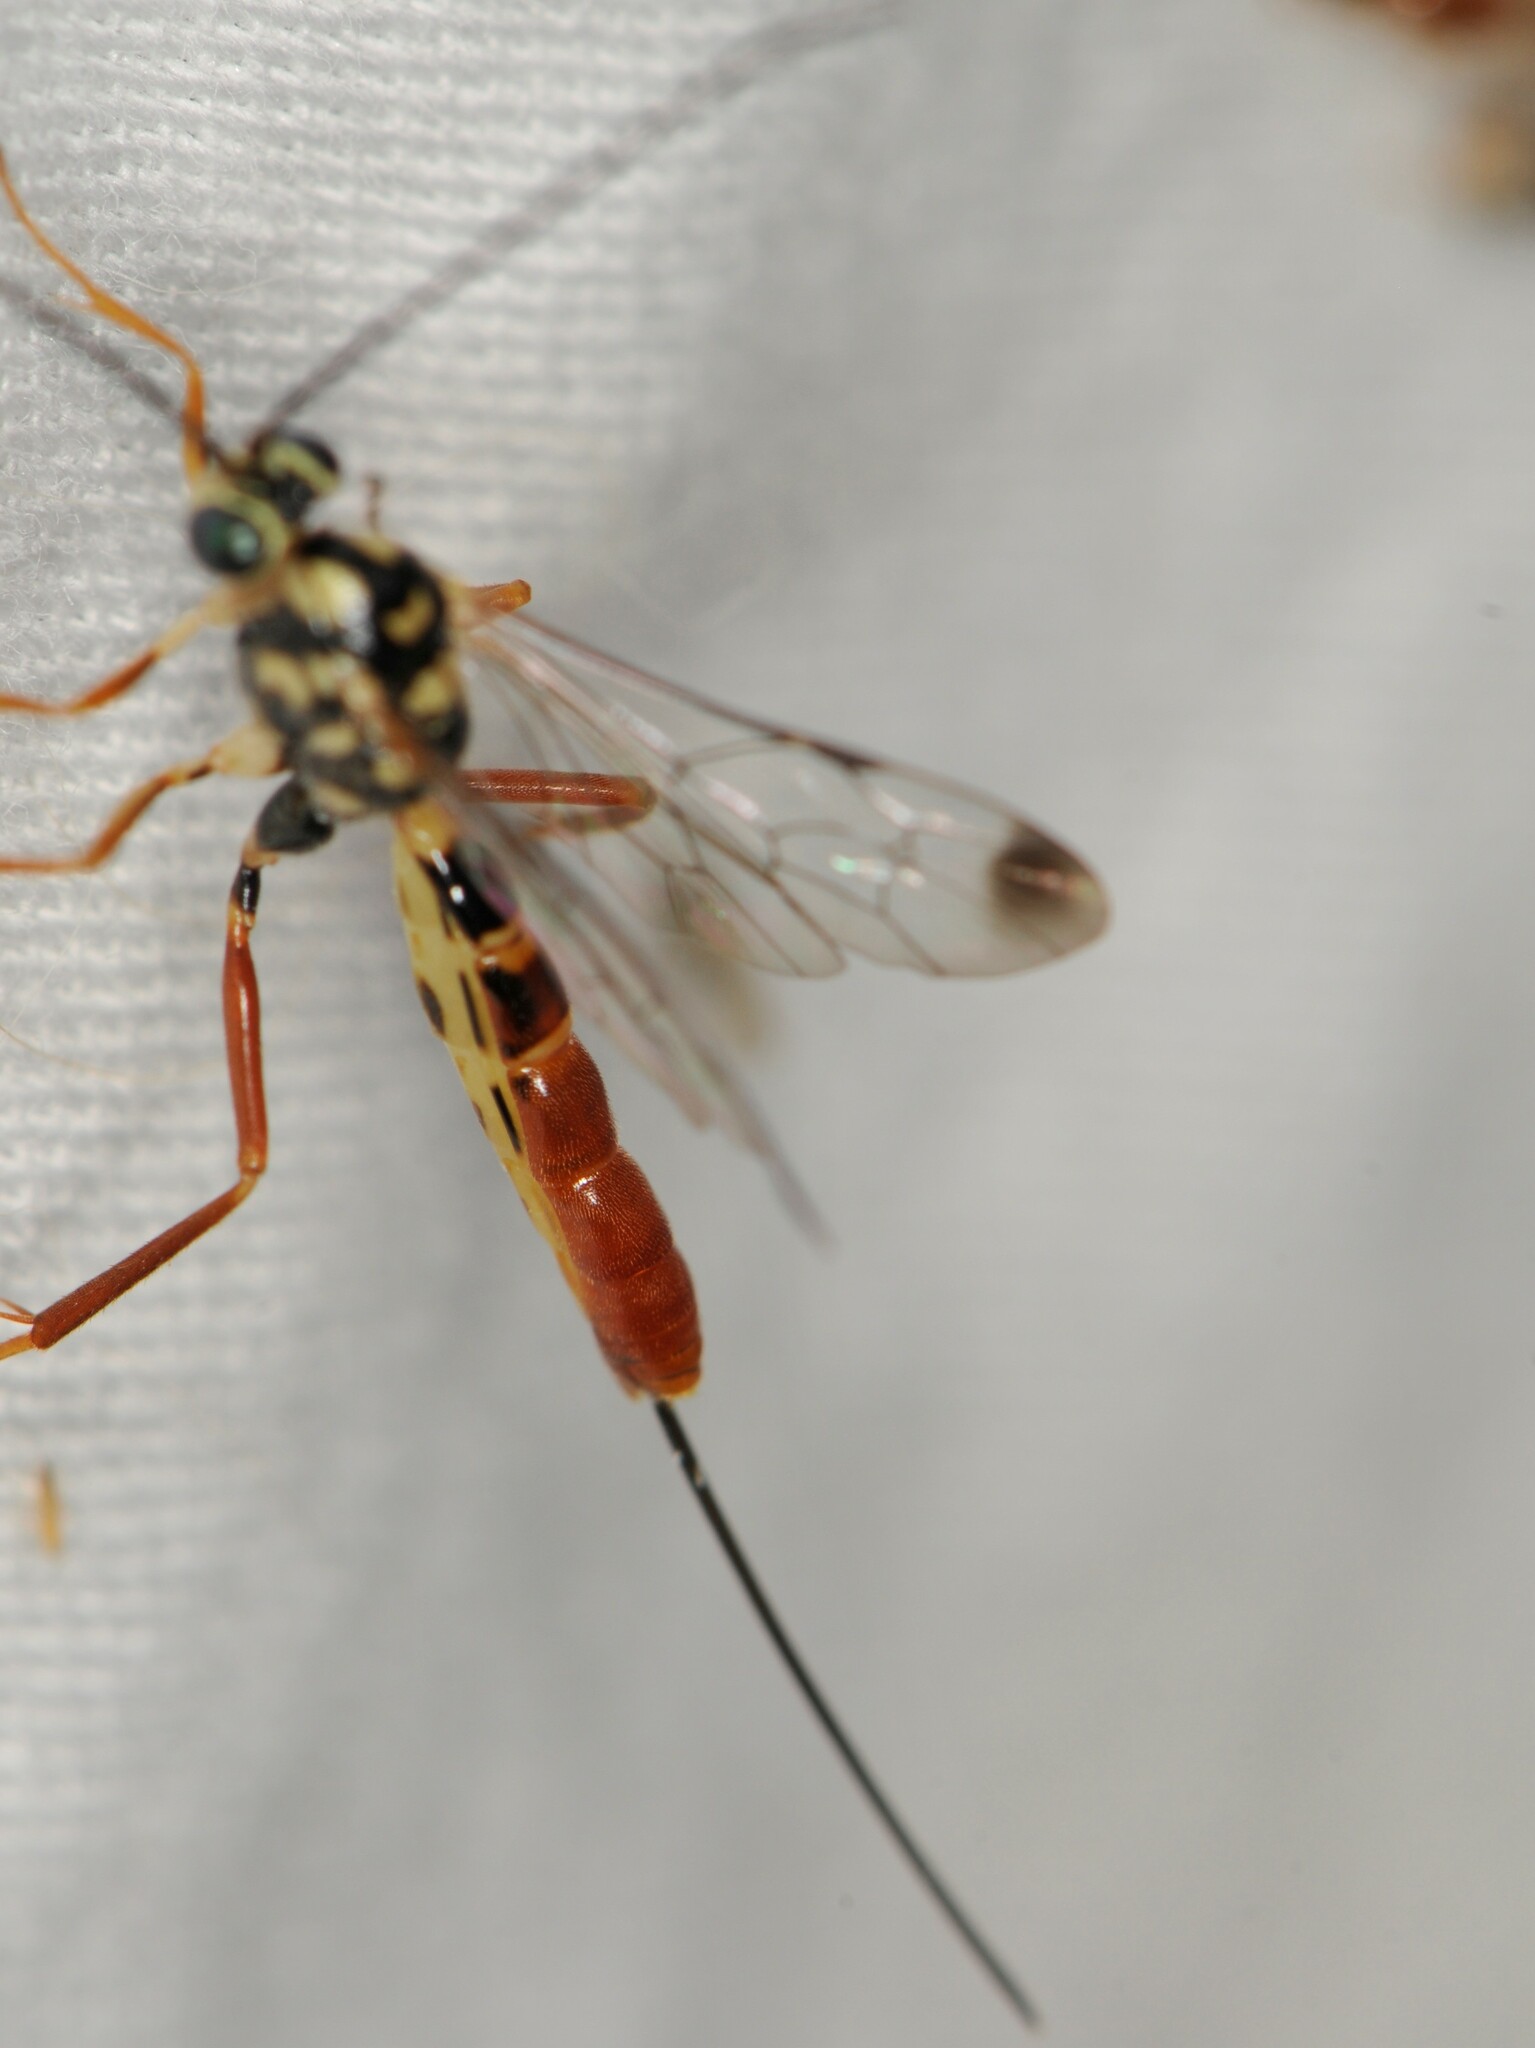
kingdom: Animalia
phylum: Arthropoda
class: Insecta
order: Hymenoptera
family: Ichneumonidae
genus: Syzeuctus
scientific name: Syzeuctus
